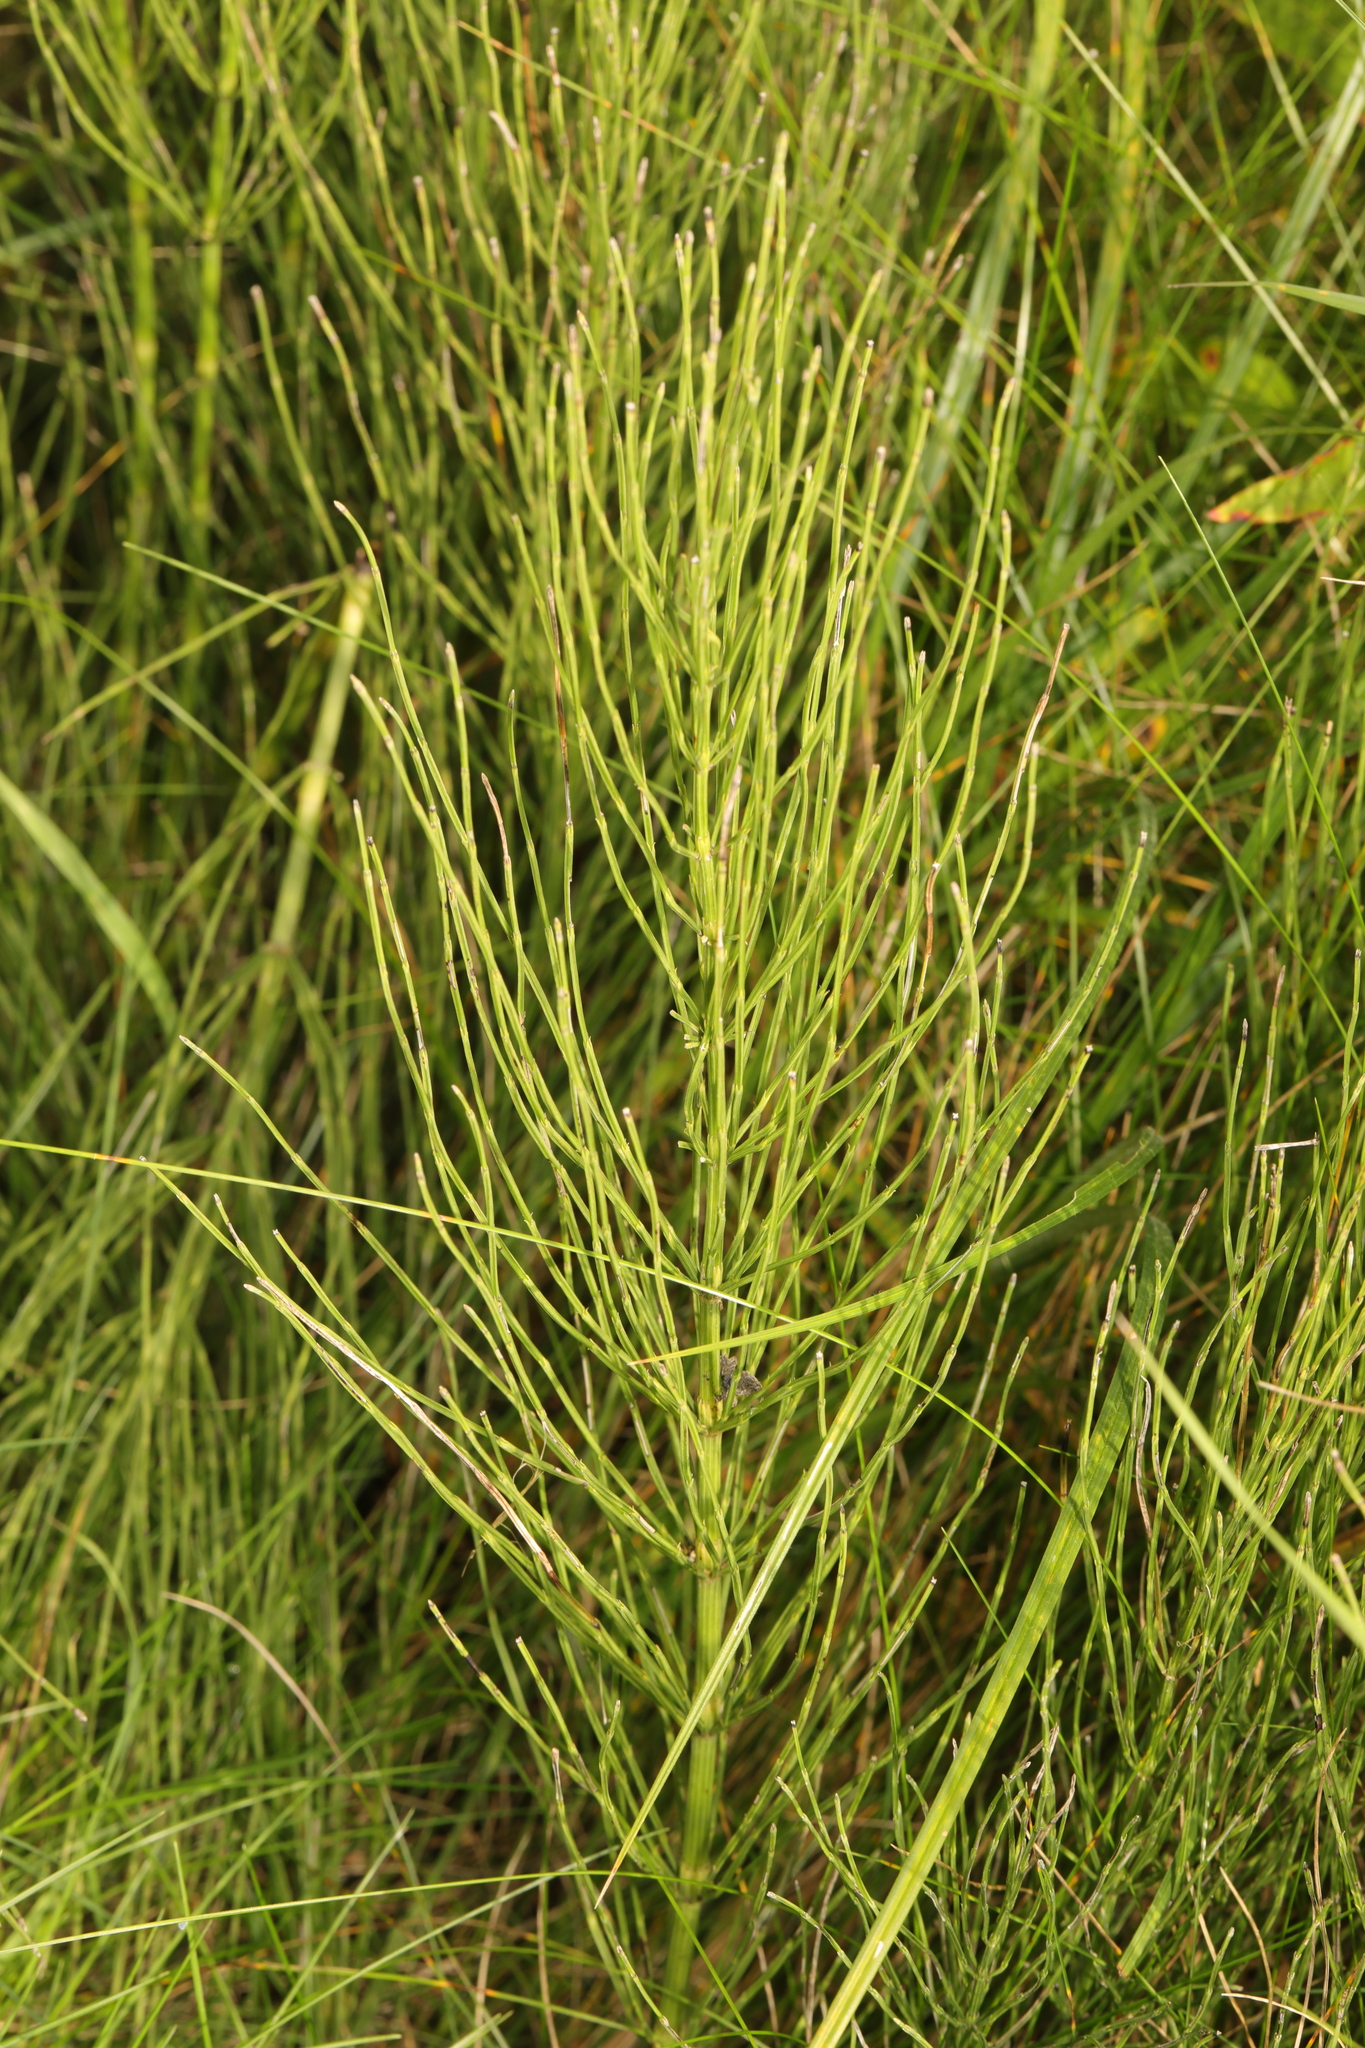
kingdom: Plantae
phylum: Tracheophyta
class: Polypodiopsida
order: Equisetales
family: Equisetaceae
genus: Equisetum
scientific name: Equisetum arvense
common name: Field horsetail
